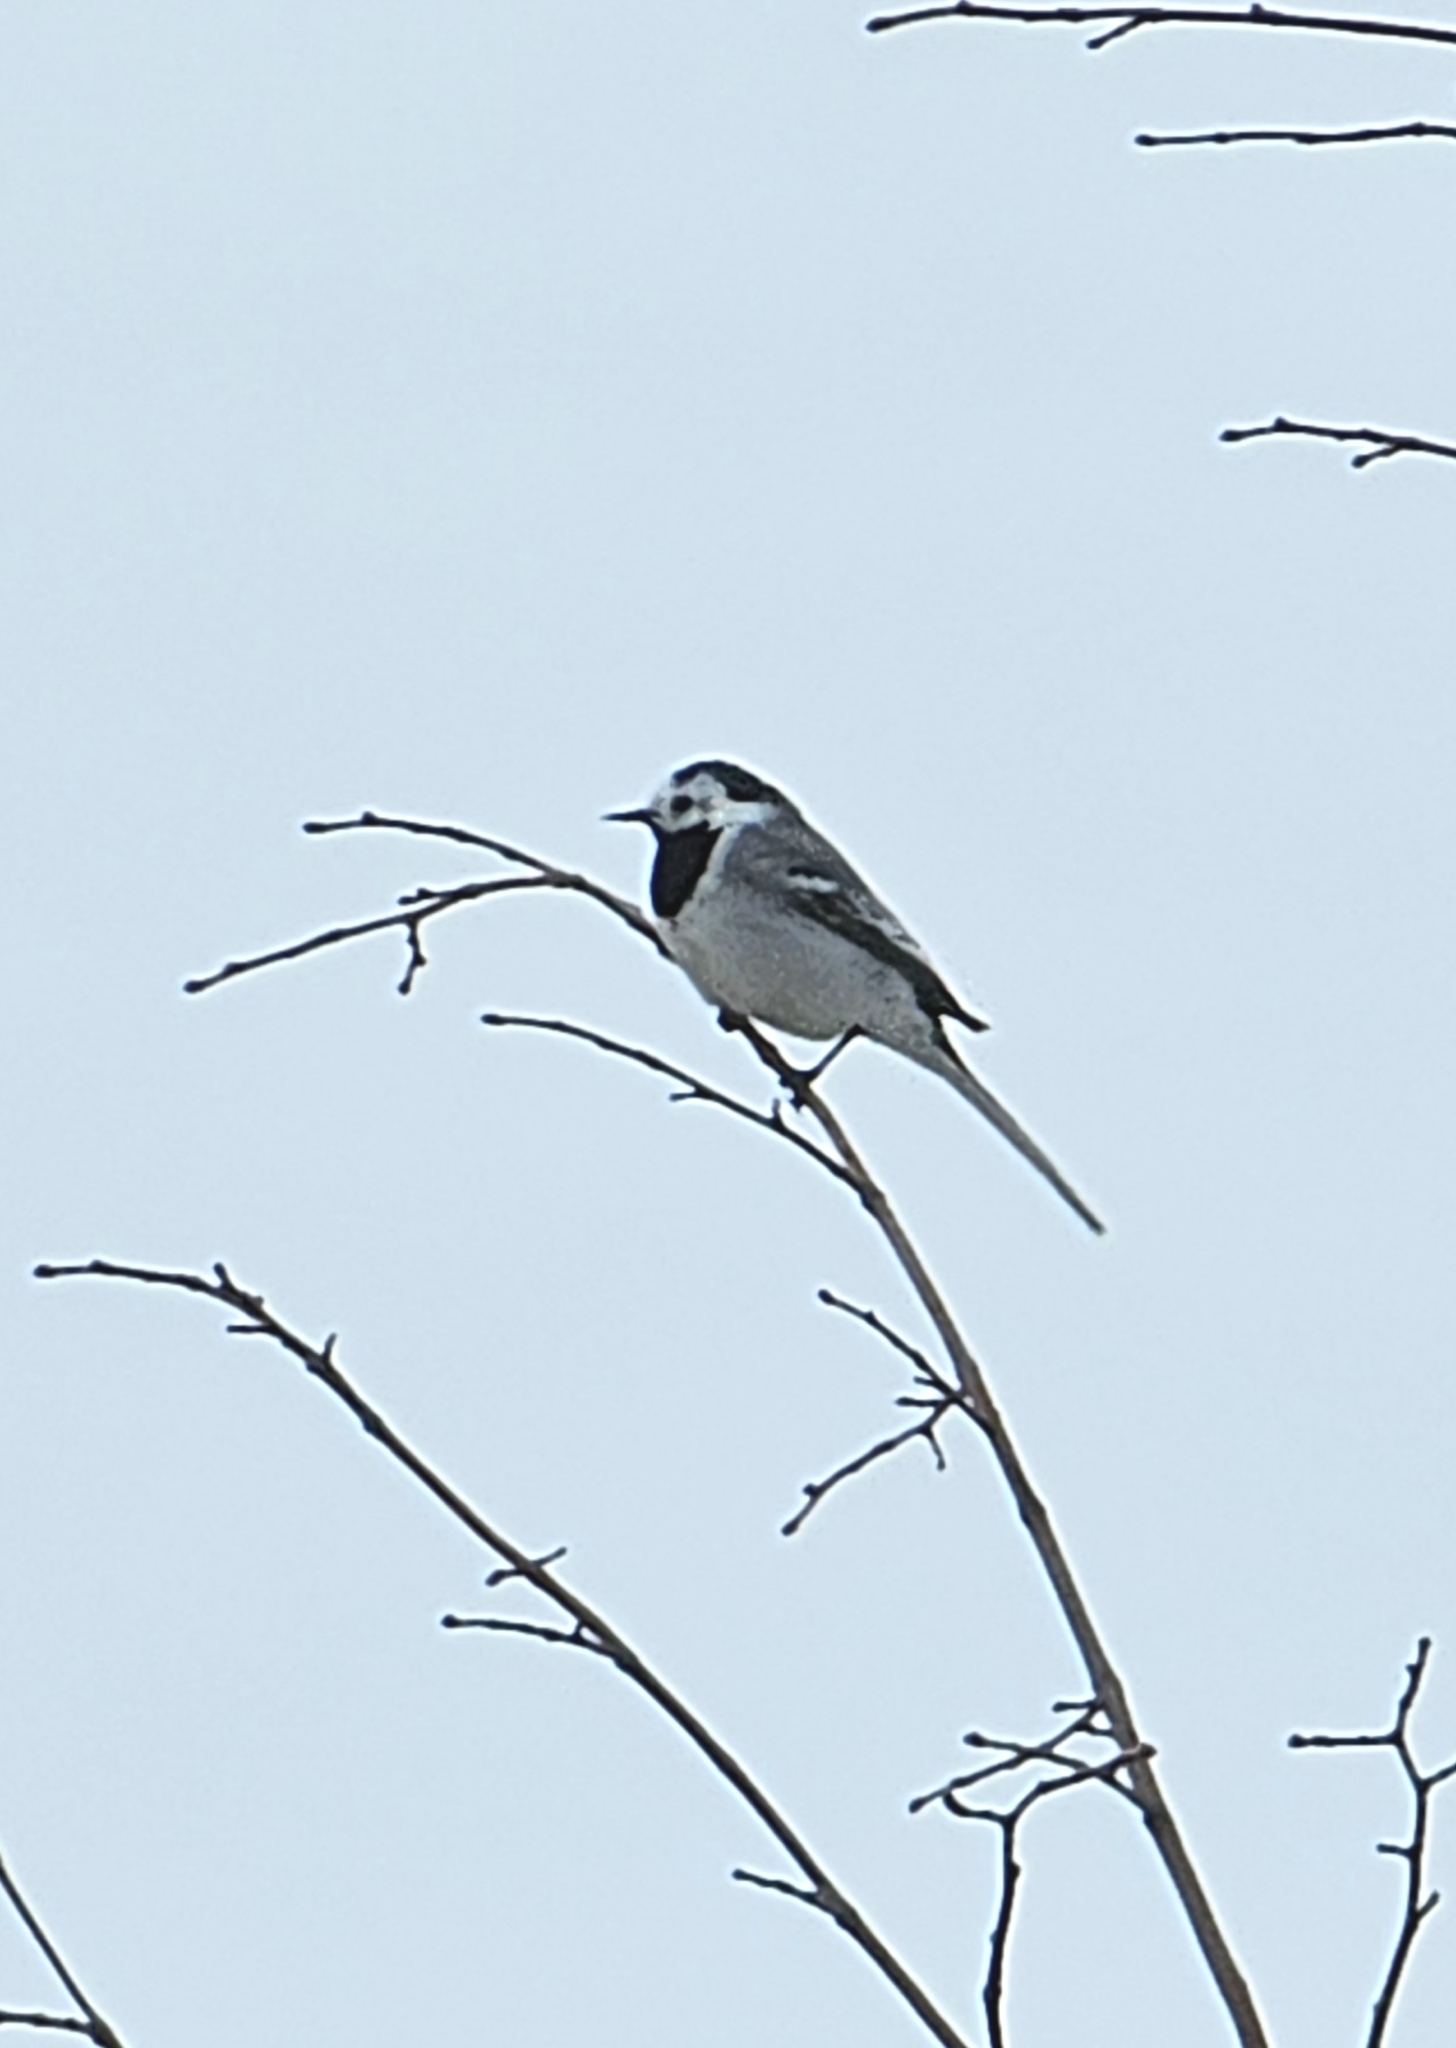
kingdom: Animalia
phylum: Chordata
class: Aves
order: Passeriformes
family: Motacillidae
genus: Motacilla
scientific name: Motacilla alba
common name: White wagtail
